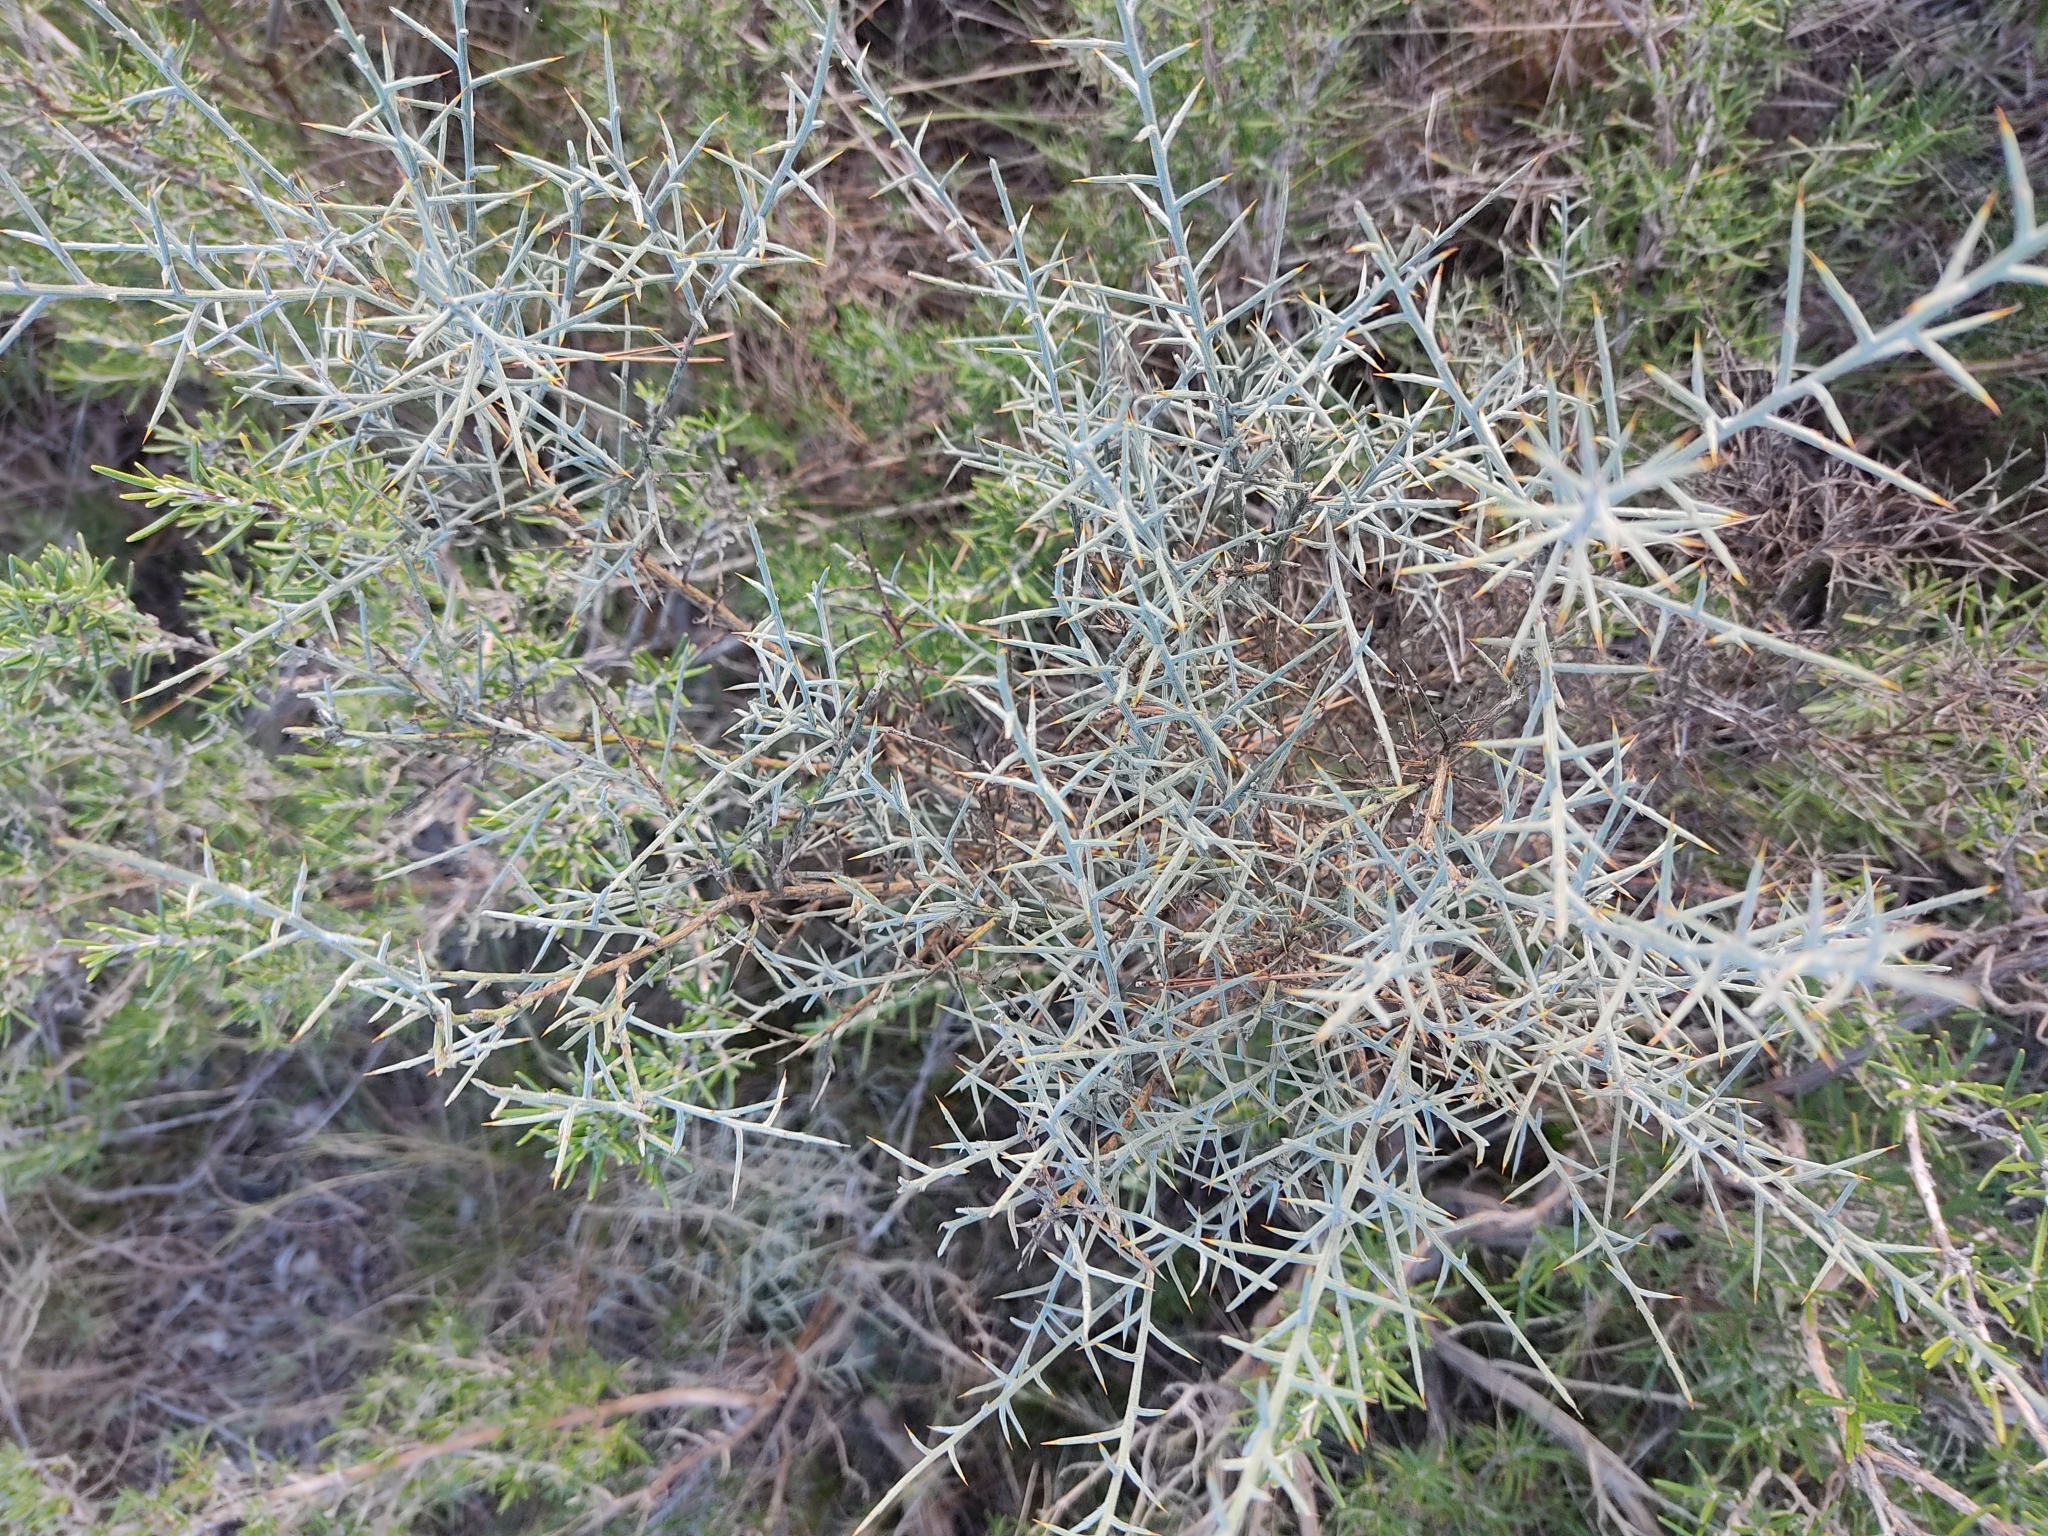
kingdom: Plantae
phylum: Tracheophyta
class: Magnoliopsida
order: Fabales
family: Fabaceae
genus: Genista
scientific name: Genista scorpius
